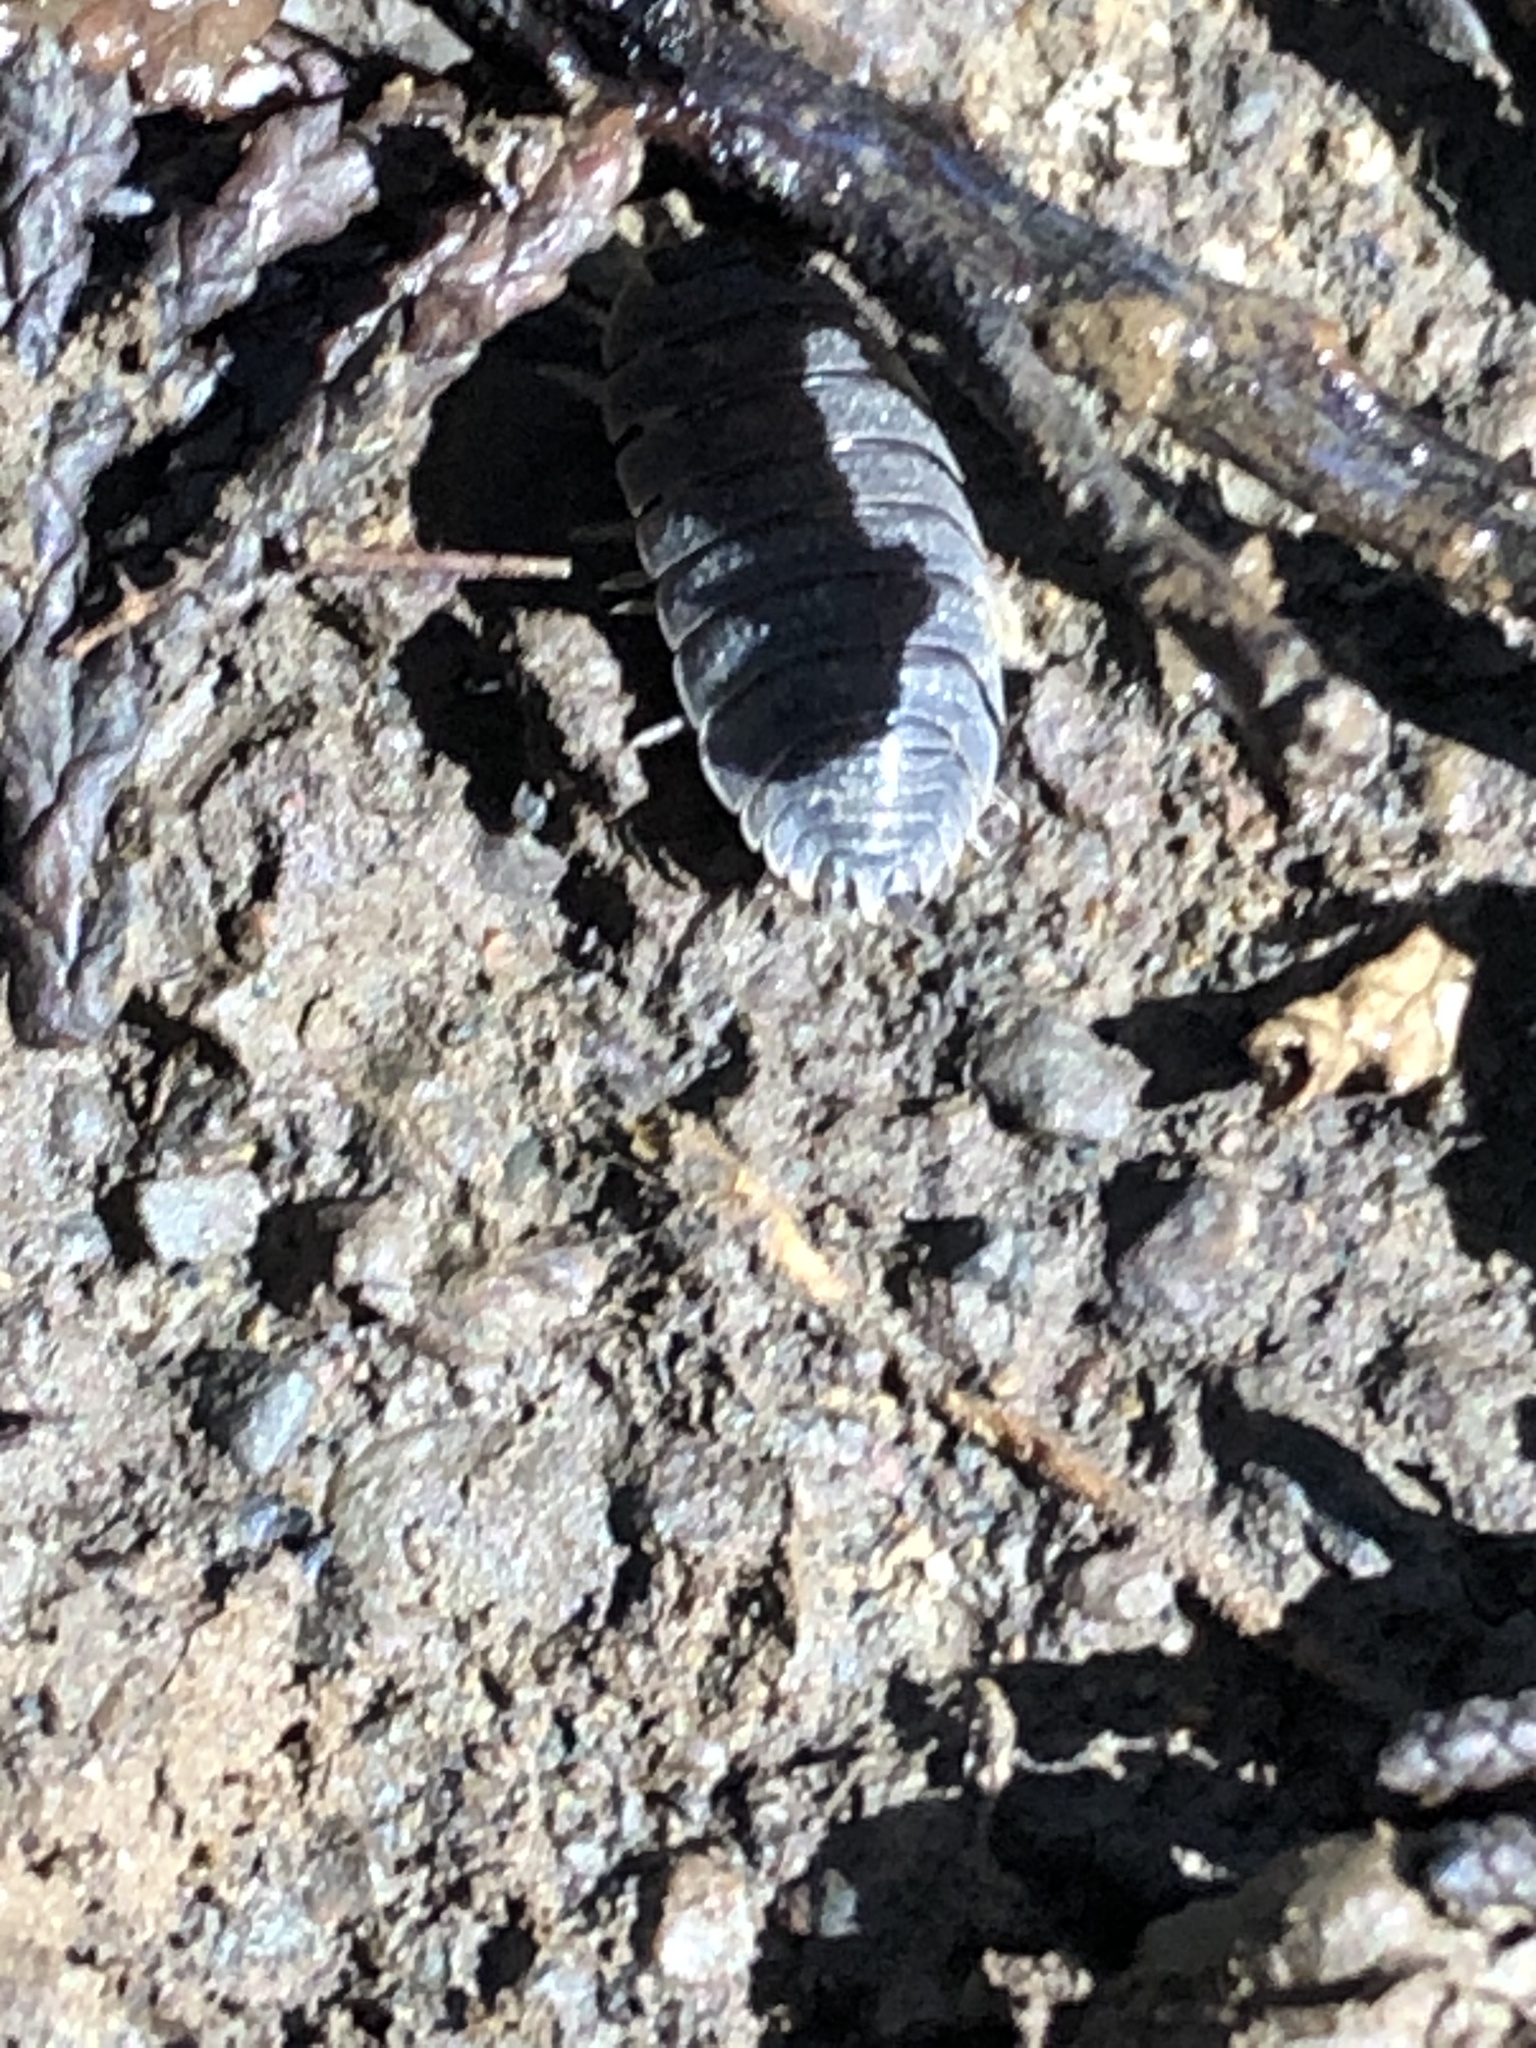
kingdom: Animalia
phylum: Arthropoda
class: Malacostraca
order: Isopoda
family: Porcellionidae
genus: Porcellio
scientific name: Porcellio scaber
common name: Common rough woodlouse
